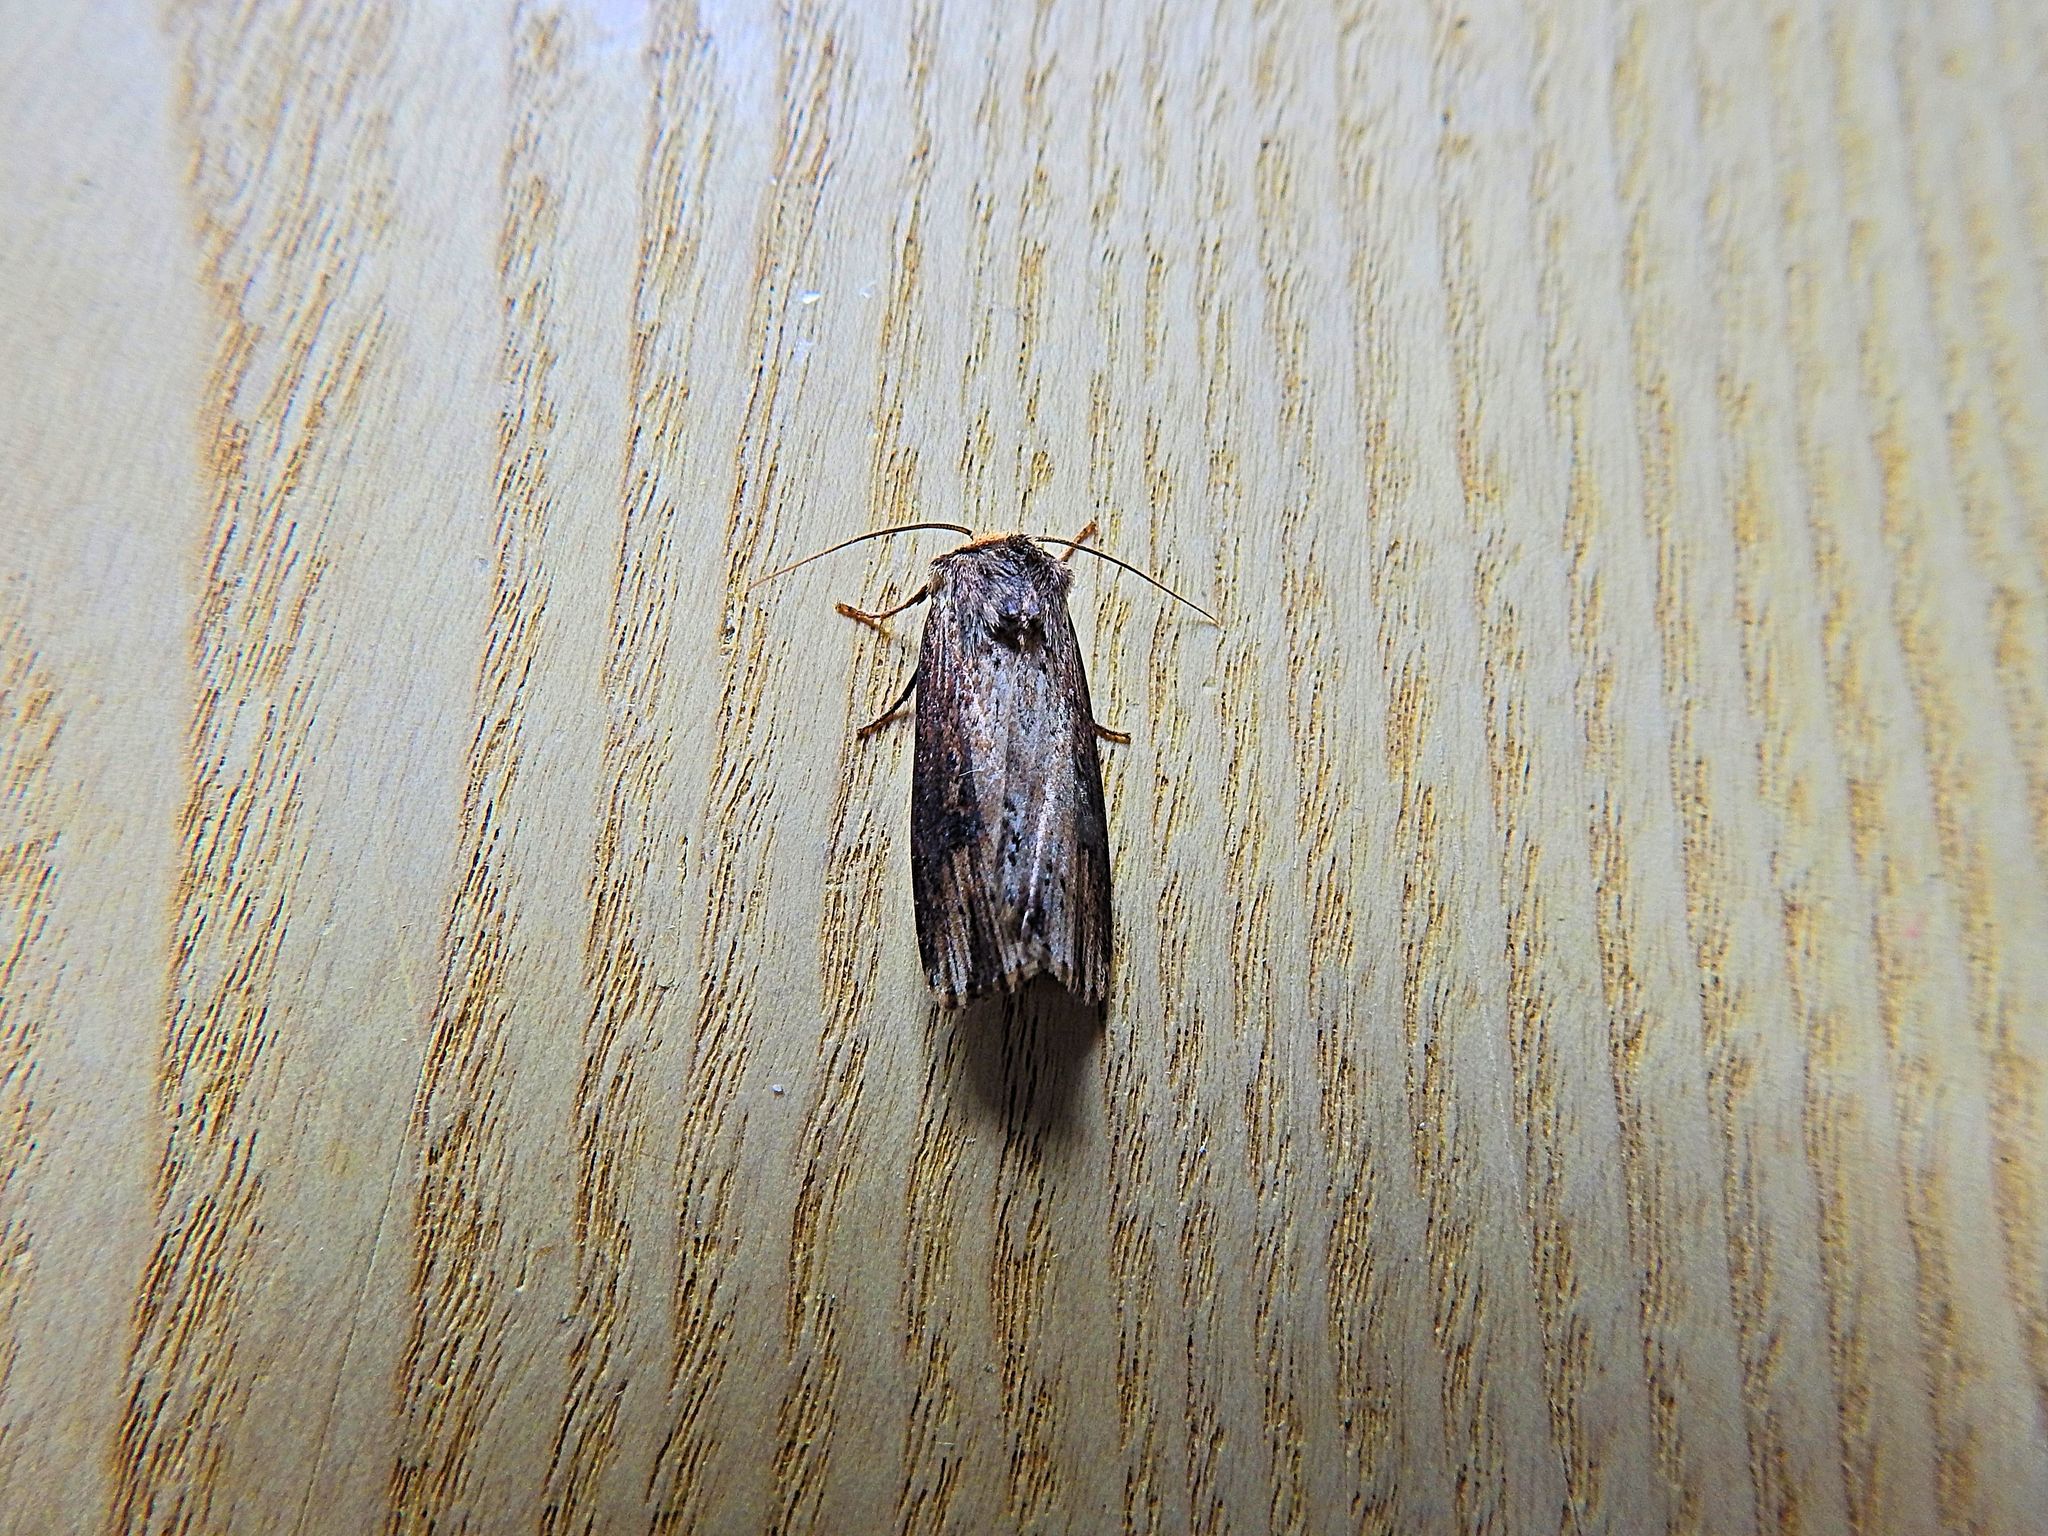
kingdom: Animalia
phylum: Arthropoda
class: Insecta
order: Lepidoptera
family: Noctuidae
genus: Axylia
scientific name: Axylia putris
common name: Flame
